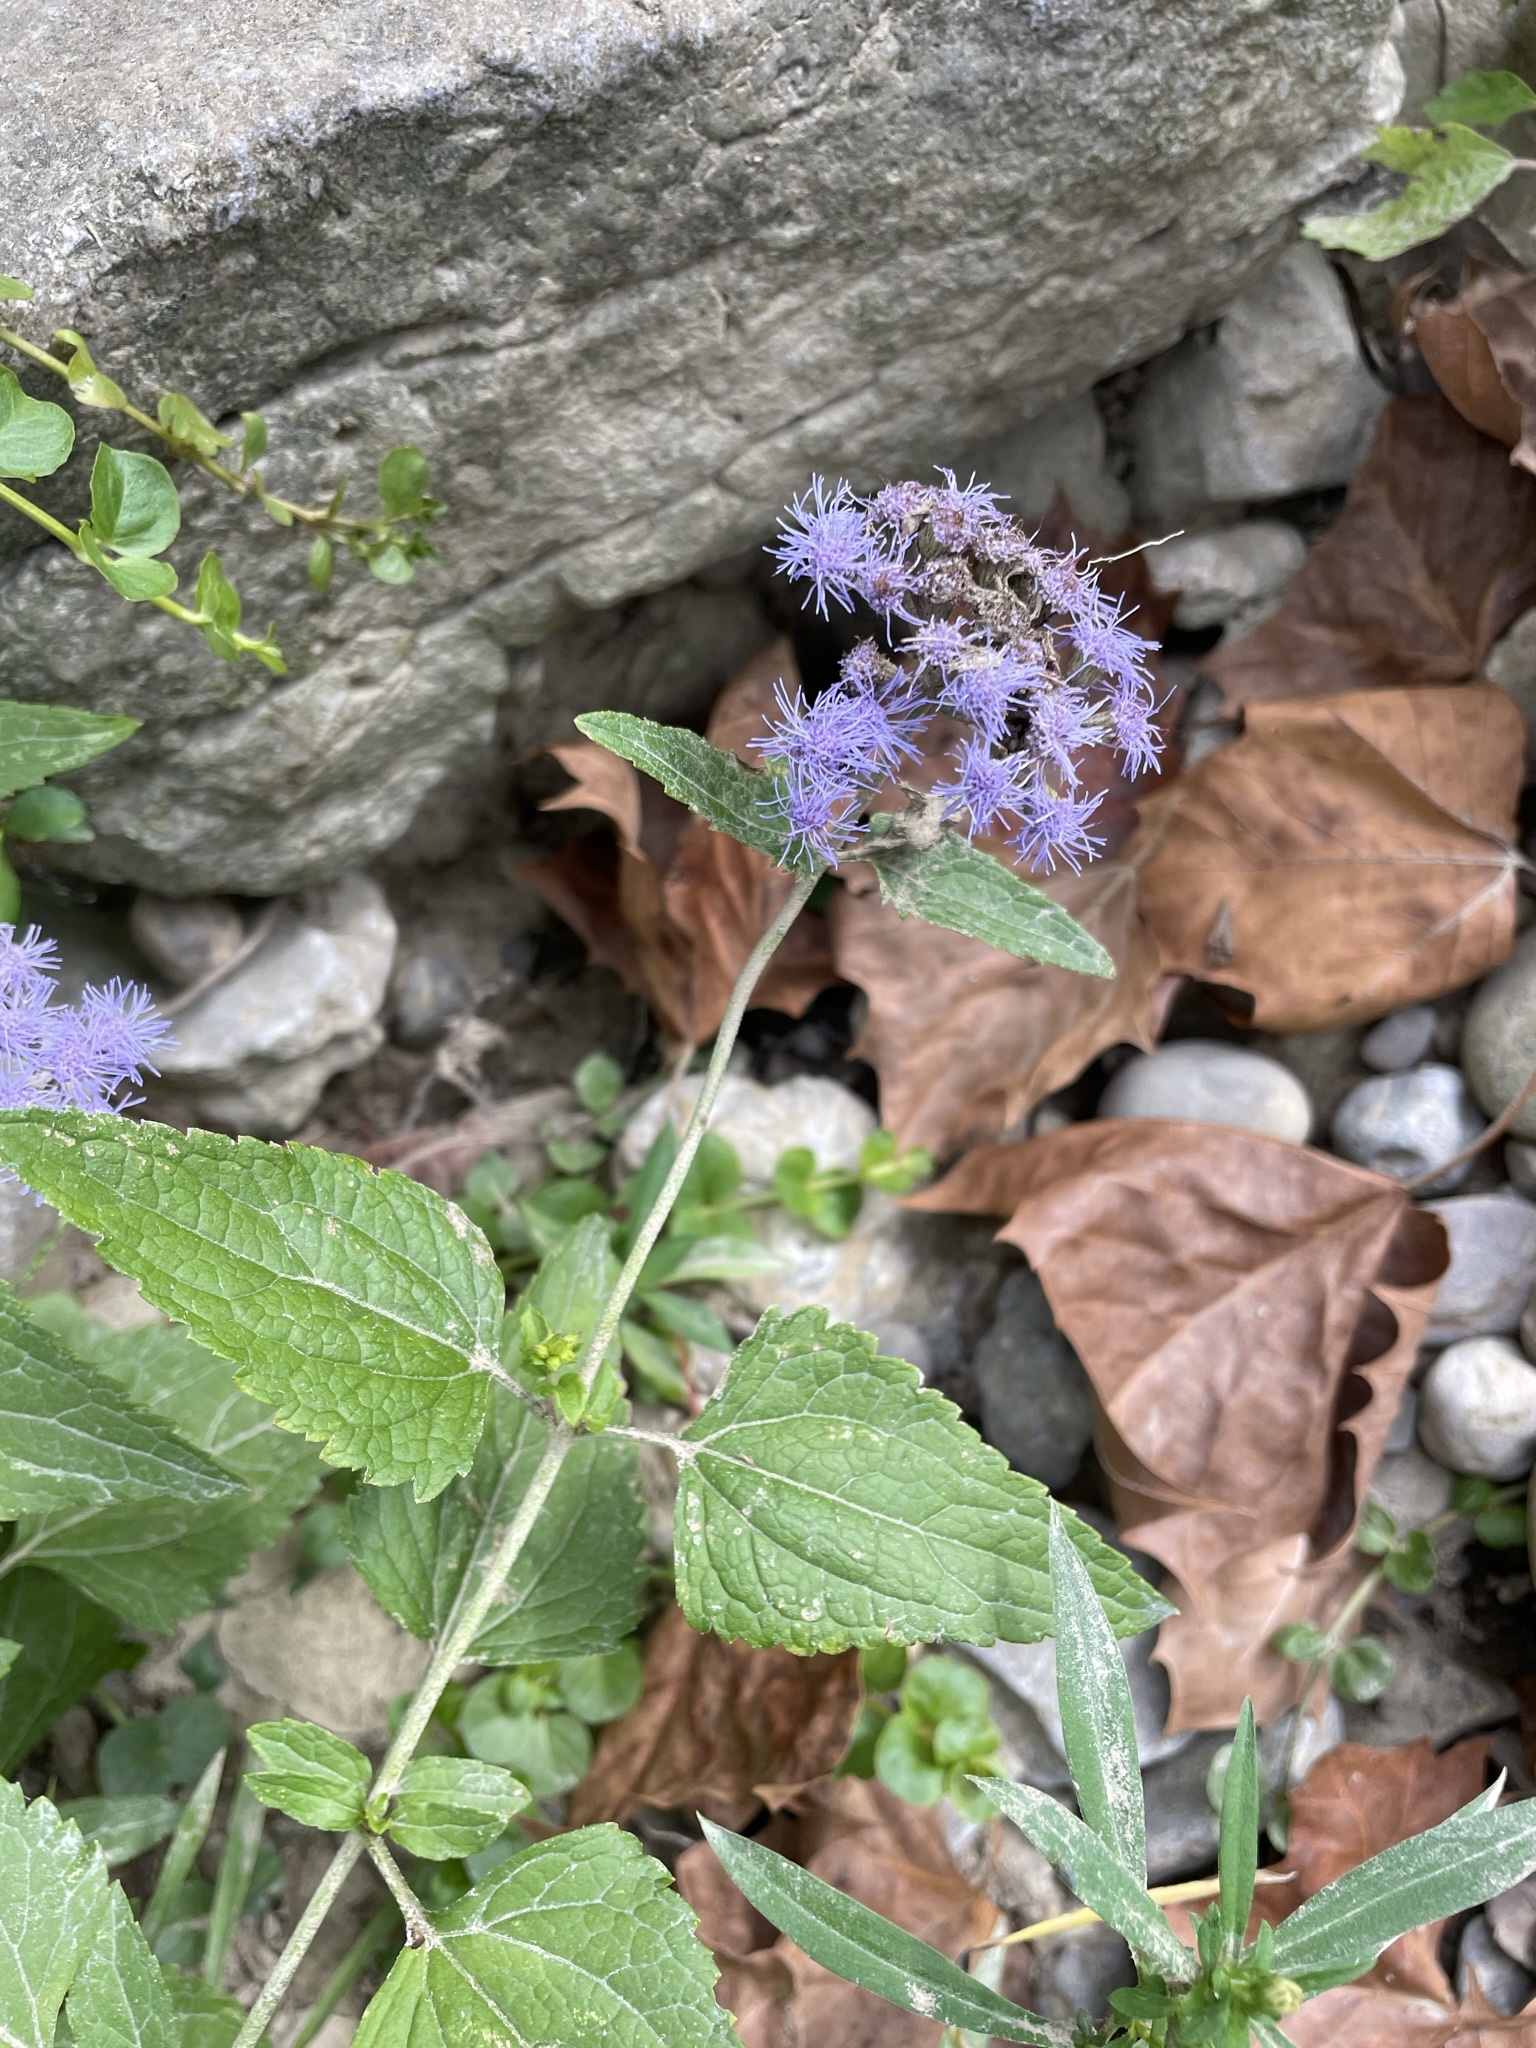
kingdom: Plantae
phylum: Tracheophyta
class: Magnoliopsida
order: Asterales
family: Asteraceae
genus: Conoclinium
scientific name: Conoclinium coelestinum
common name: Blue mistflower
